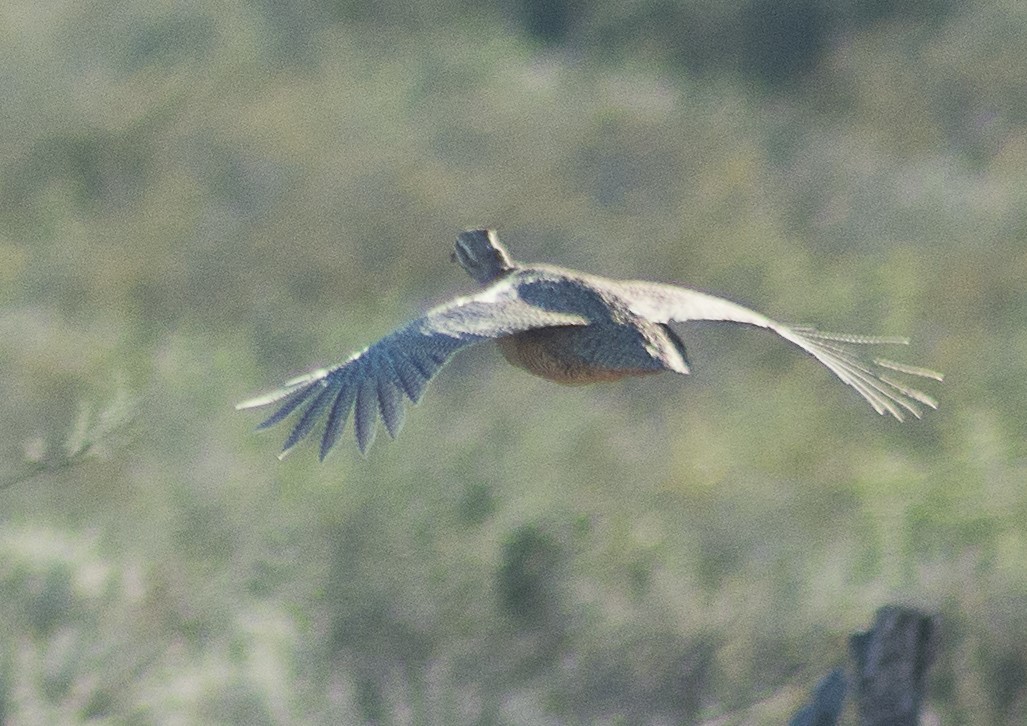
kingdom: Animalia
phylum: Chordata
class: Aves
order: Tinamiformes
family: Tinamidae
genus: Eudromia
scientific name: Eudromia elegans
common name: Elegant crested tinamou
